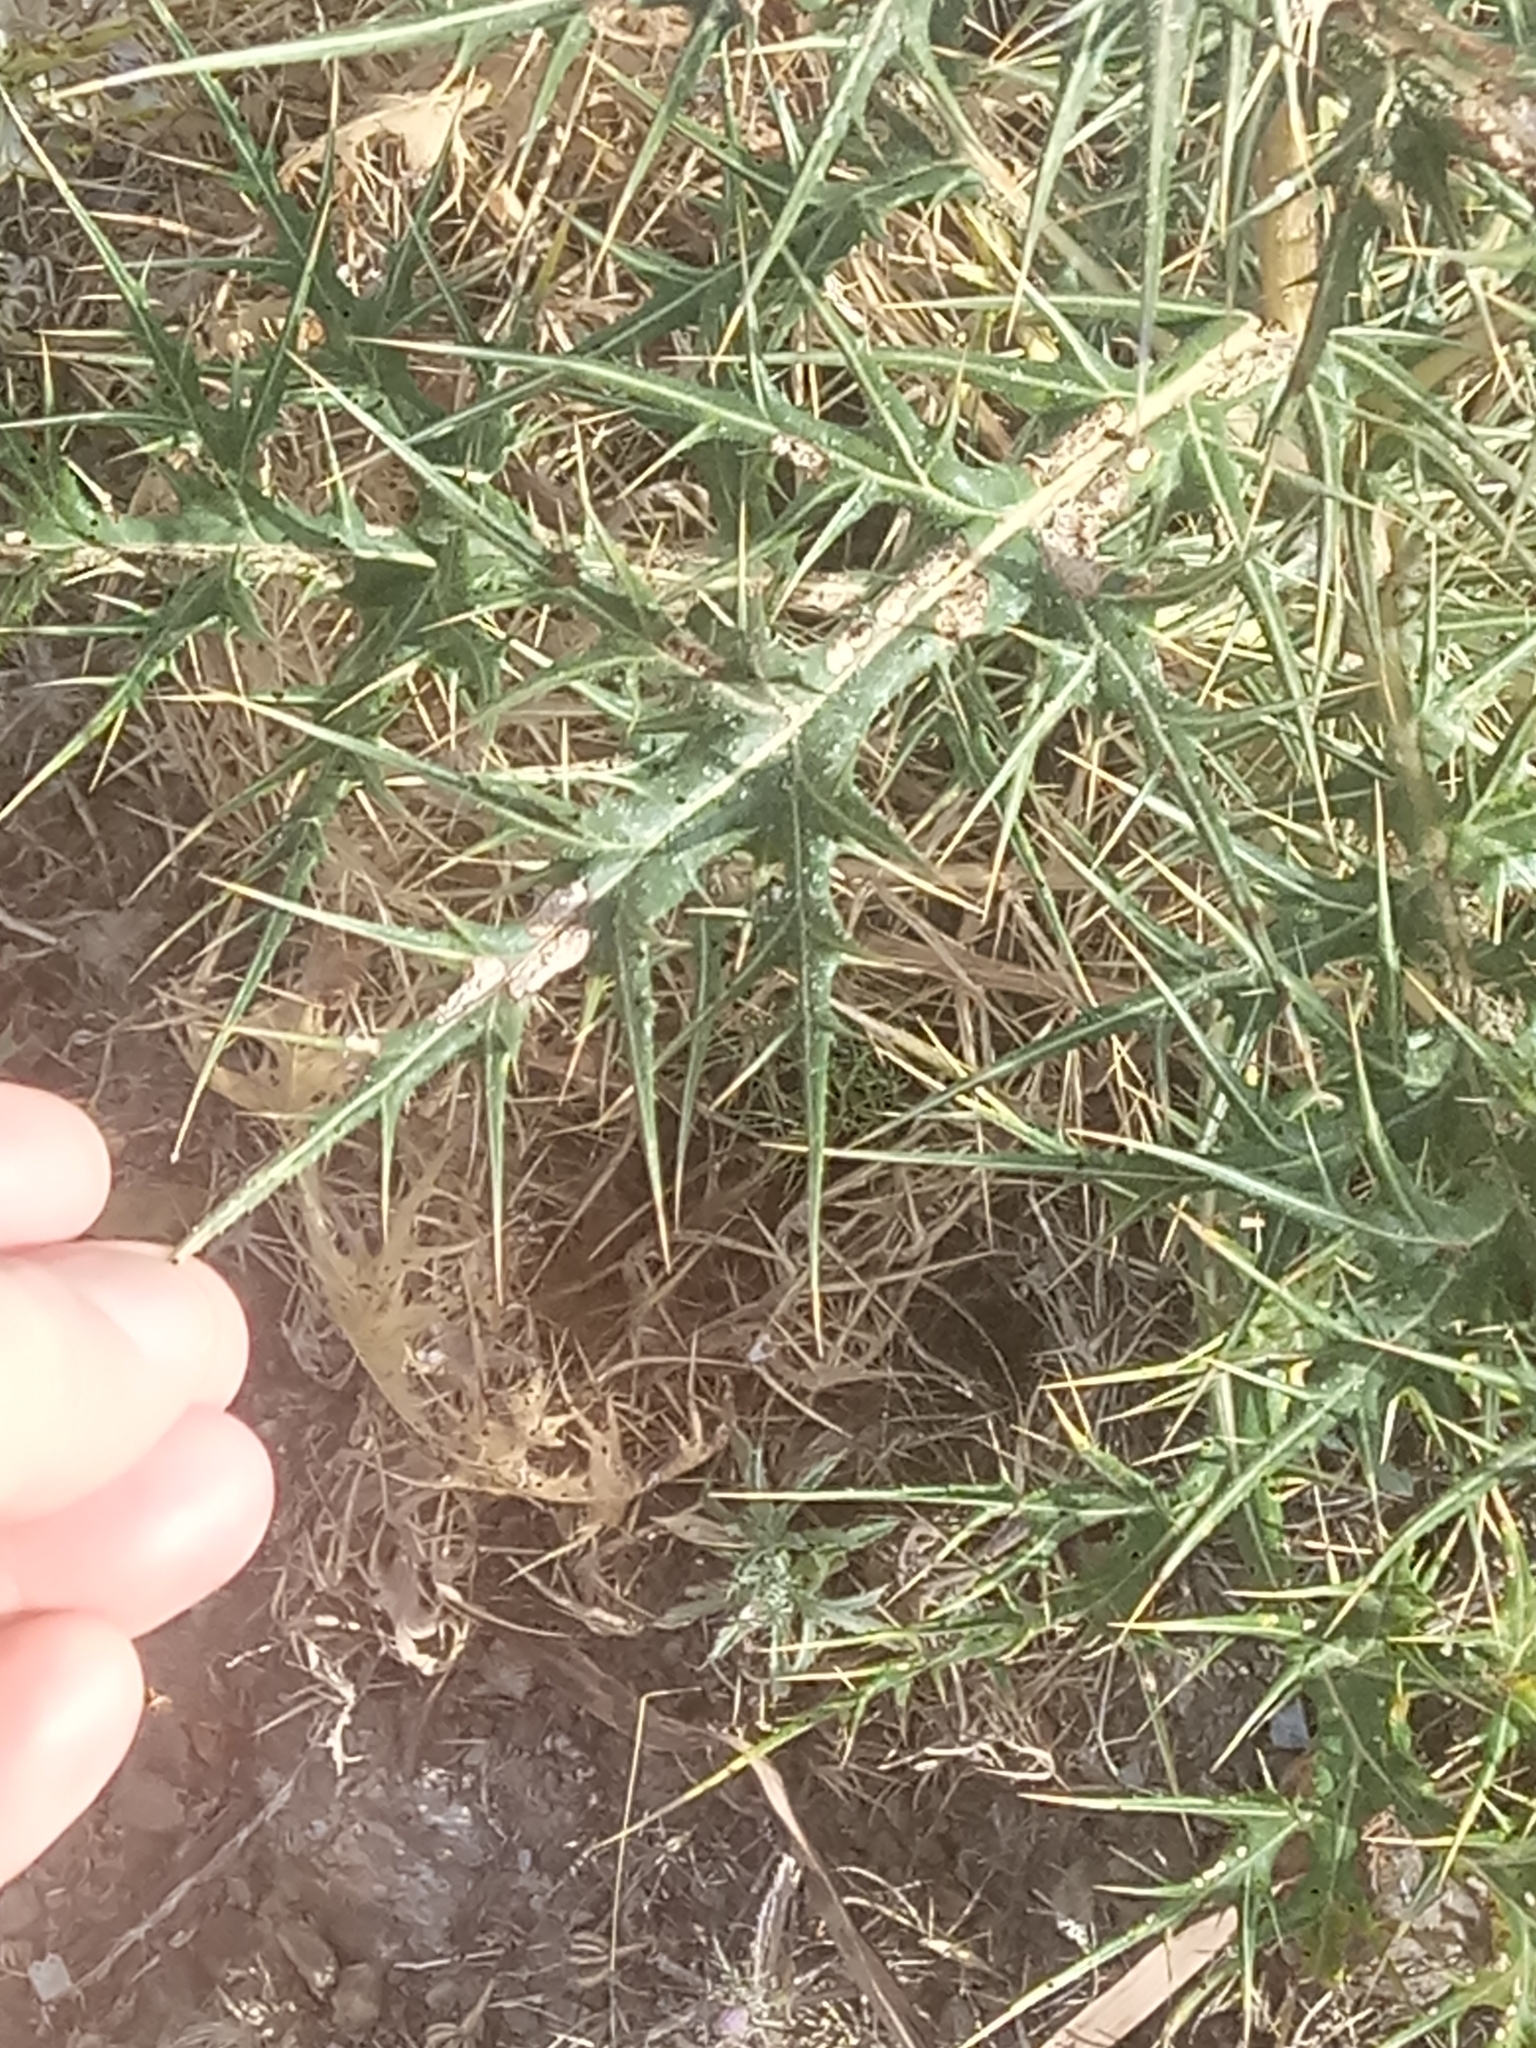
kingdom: Plantae
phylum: Tracheophyta
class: Magnoliopsida
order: Asterales
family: Asteraceae
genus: Echinops
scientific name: Echinops bovei
